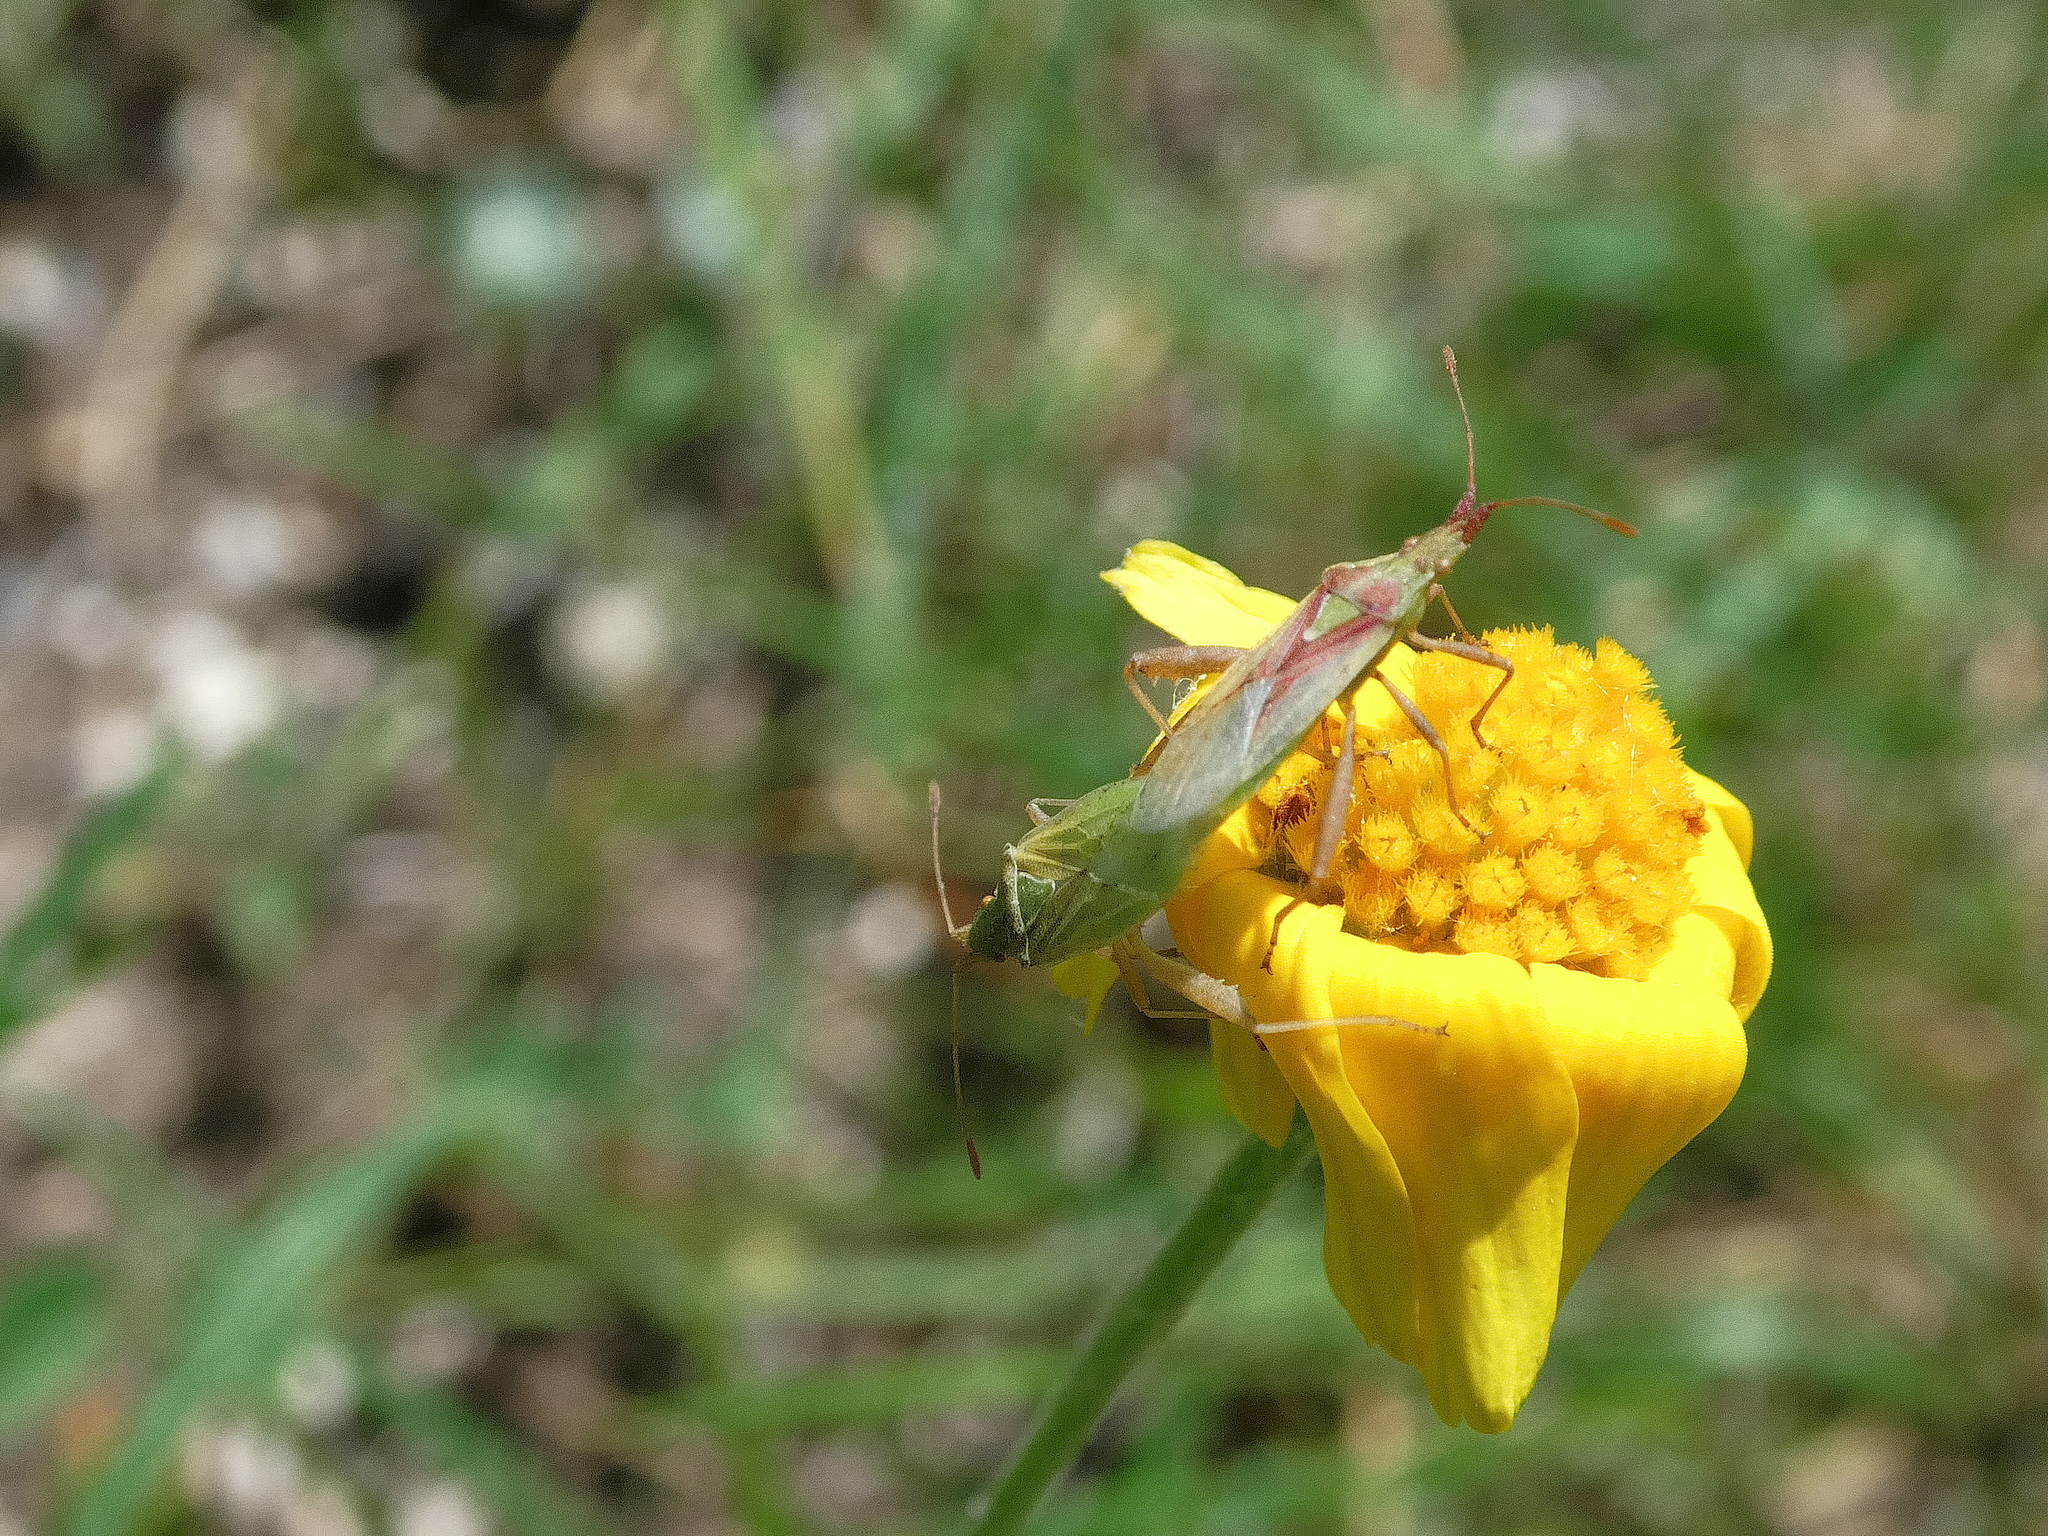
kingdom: Animalia
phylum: Arthropoda
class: Insecta
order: Hemiptera
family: Rhopalidae
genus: Harmostes
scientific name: Harmostes reflexulus
